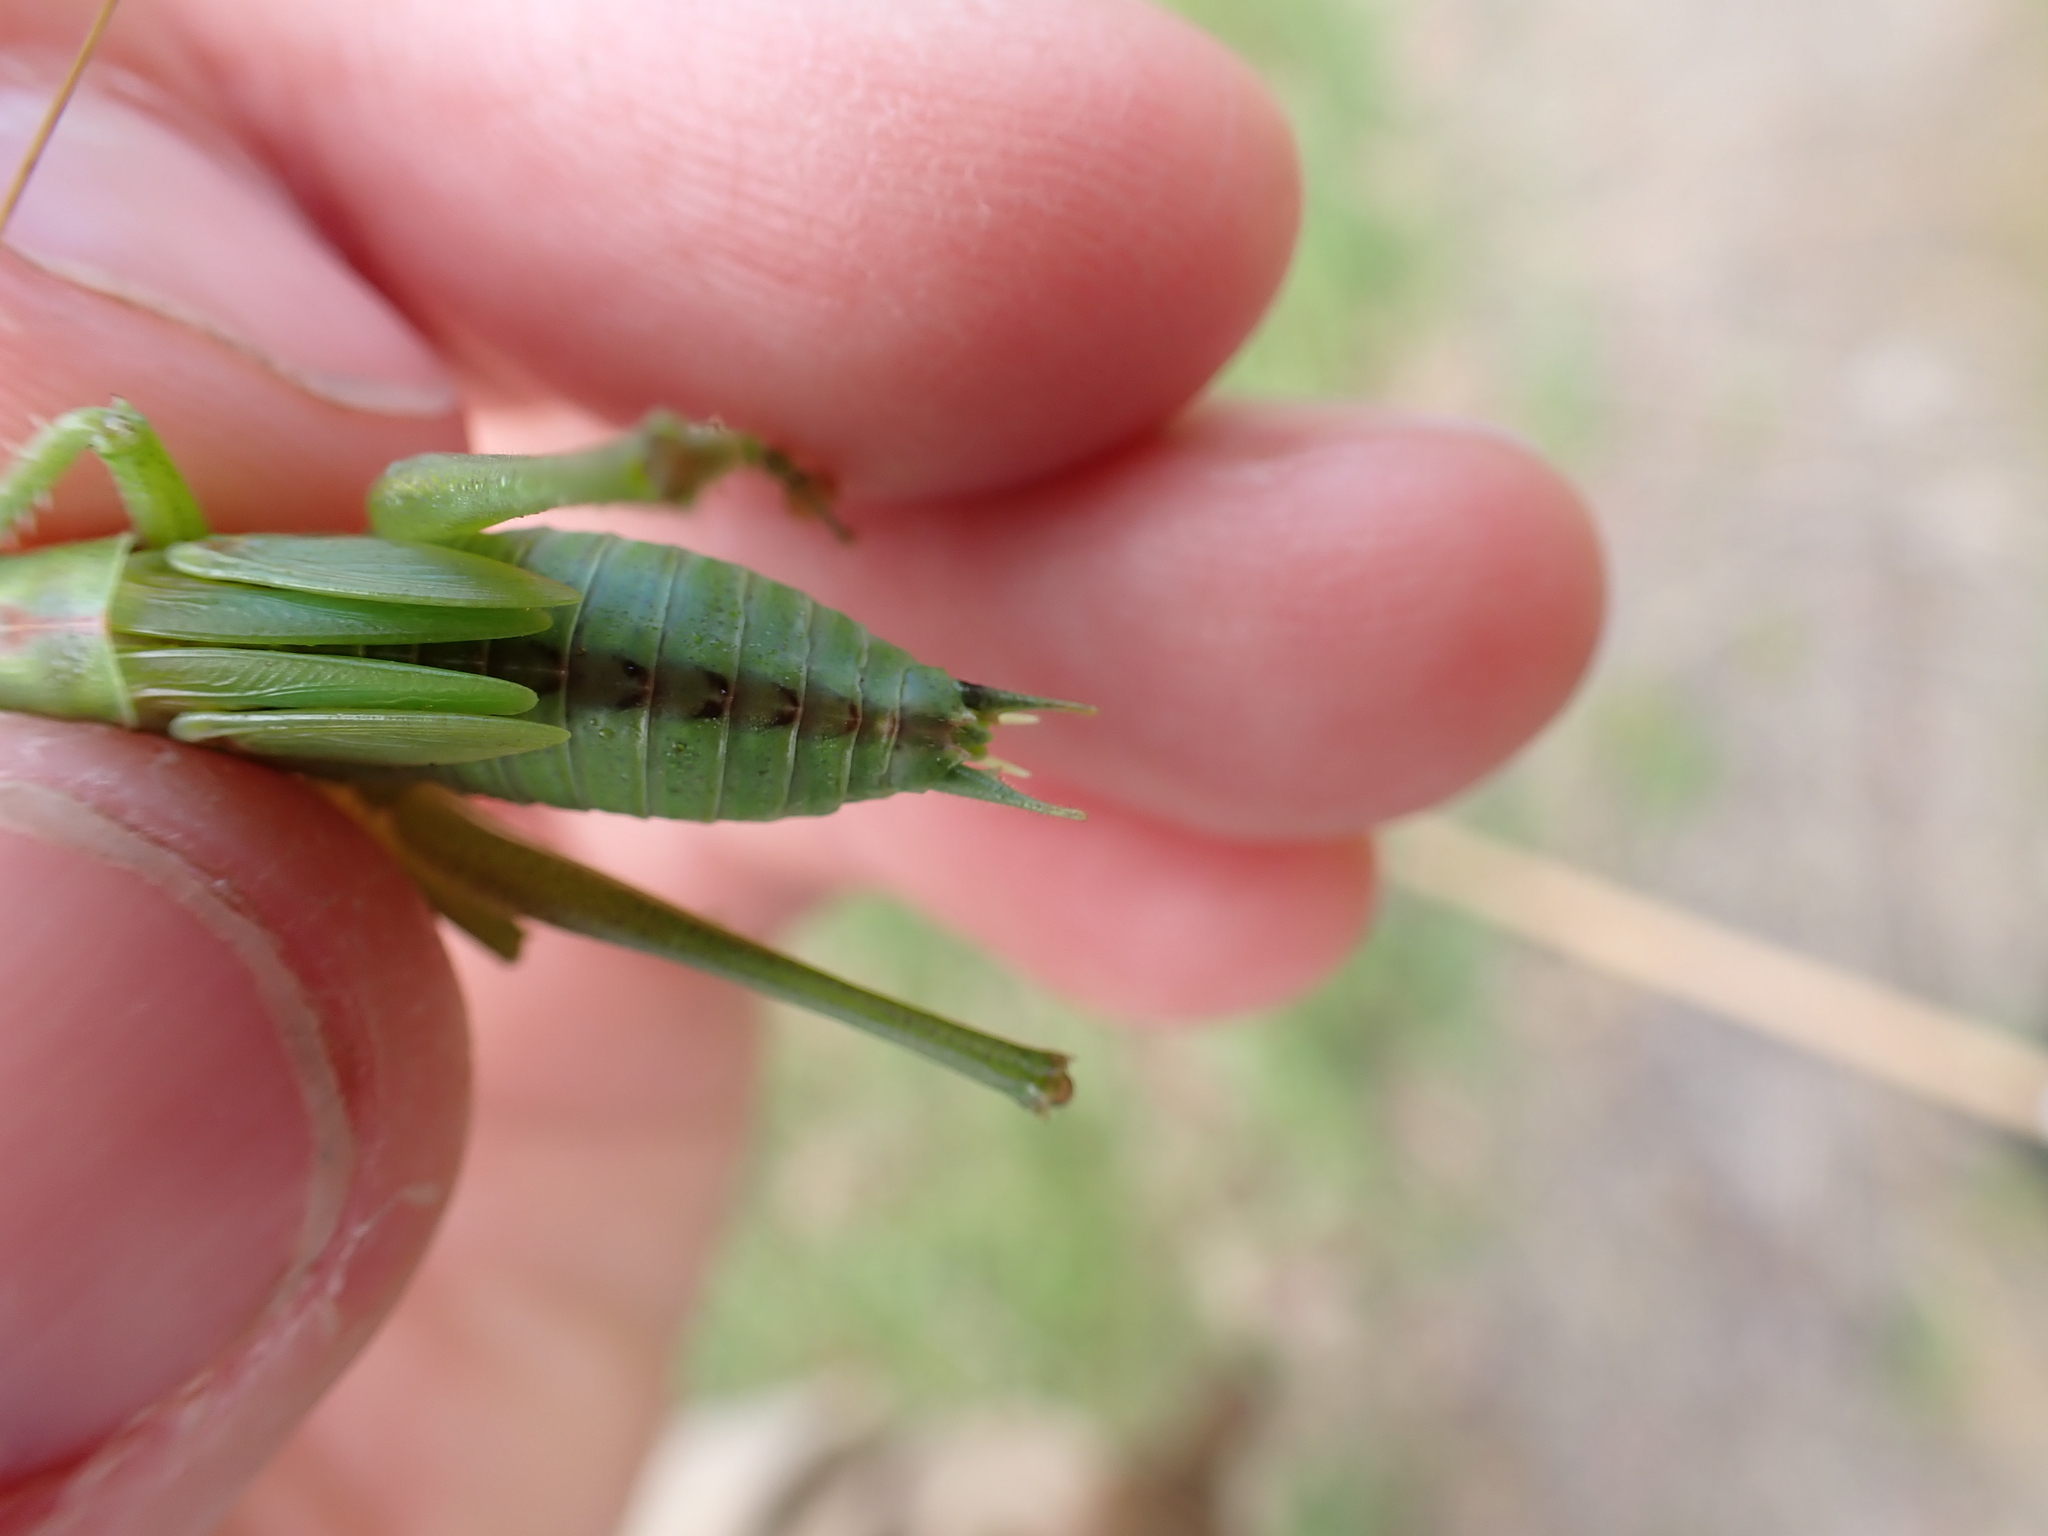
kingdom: Animalia
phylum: Arthropoda
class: Insecta
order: Orthoptera
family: Tettigoniidae
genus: Tettigonia
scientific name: Tettigonia viridissima
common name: Great green bush-cricket
